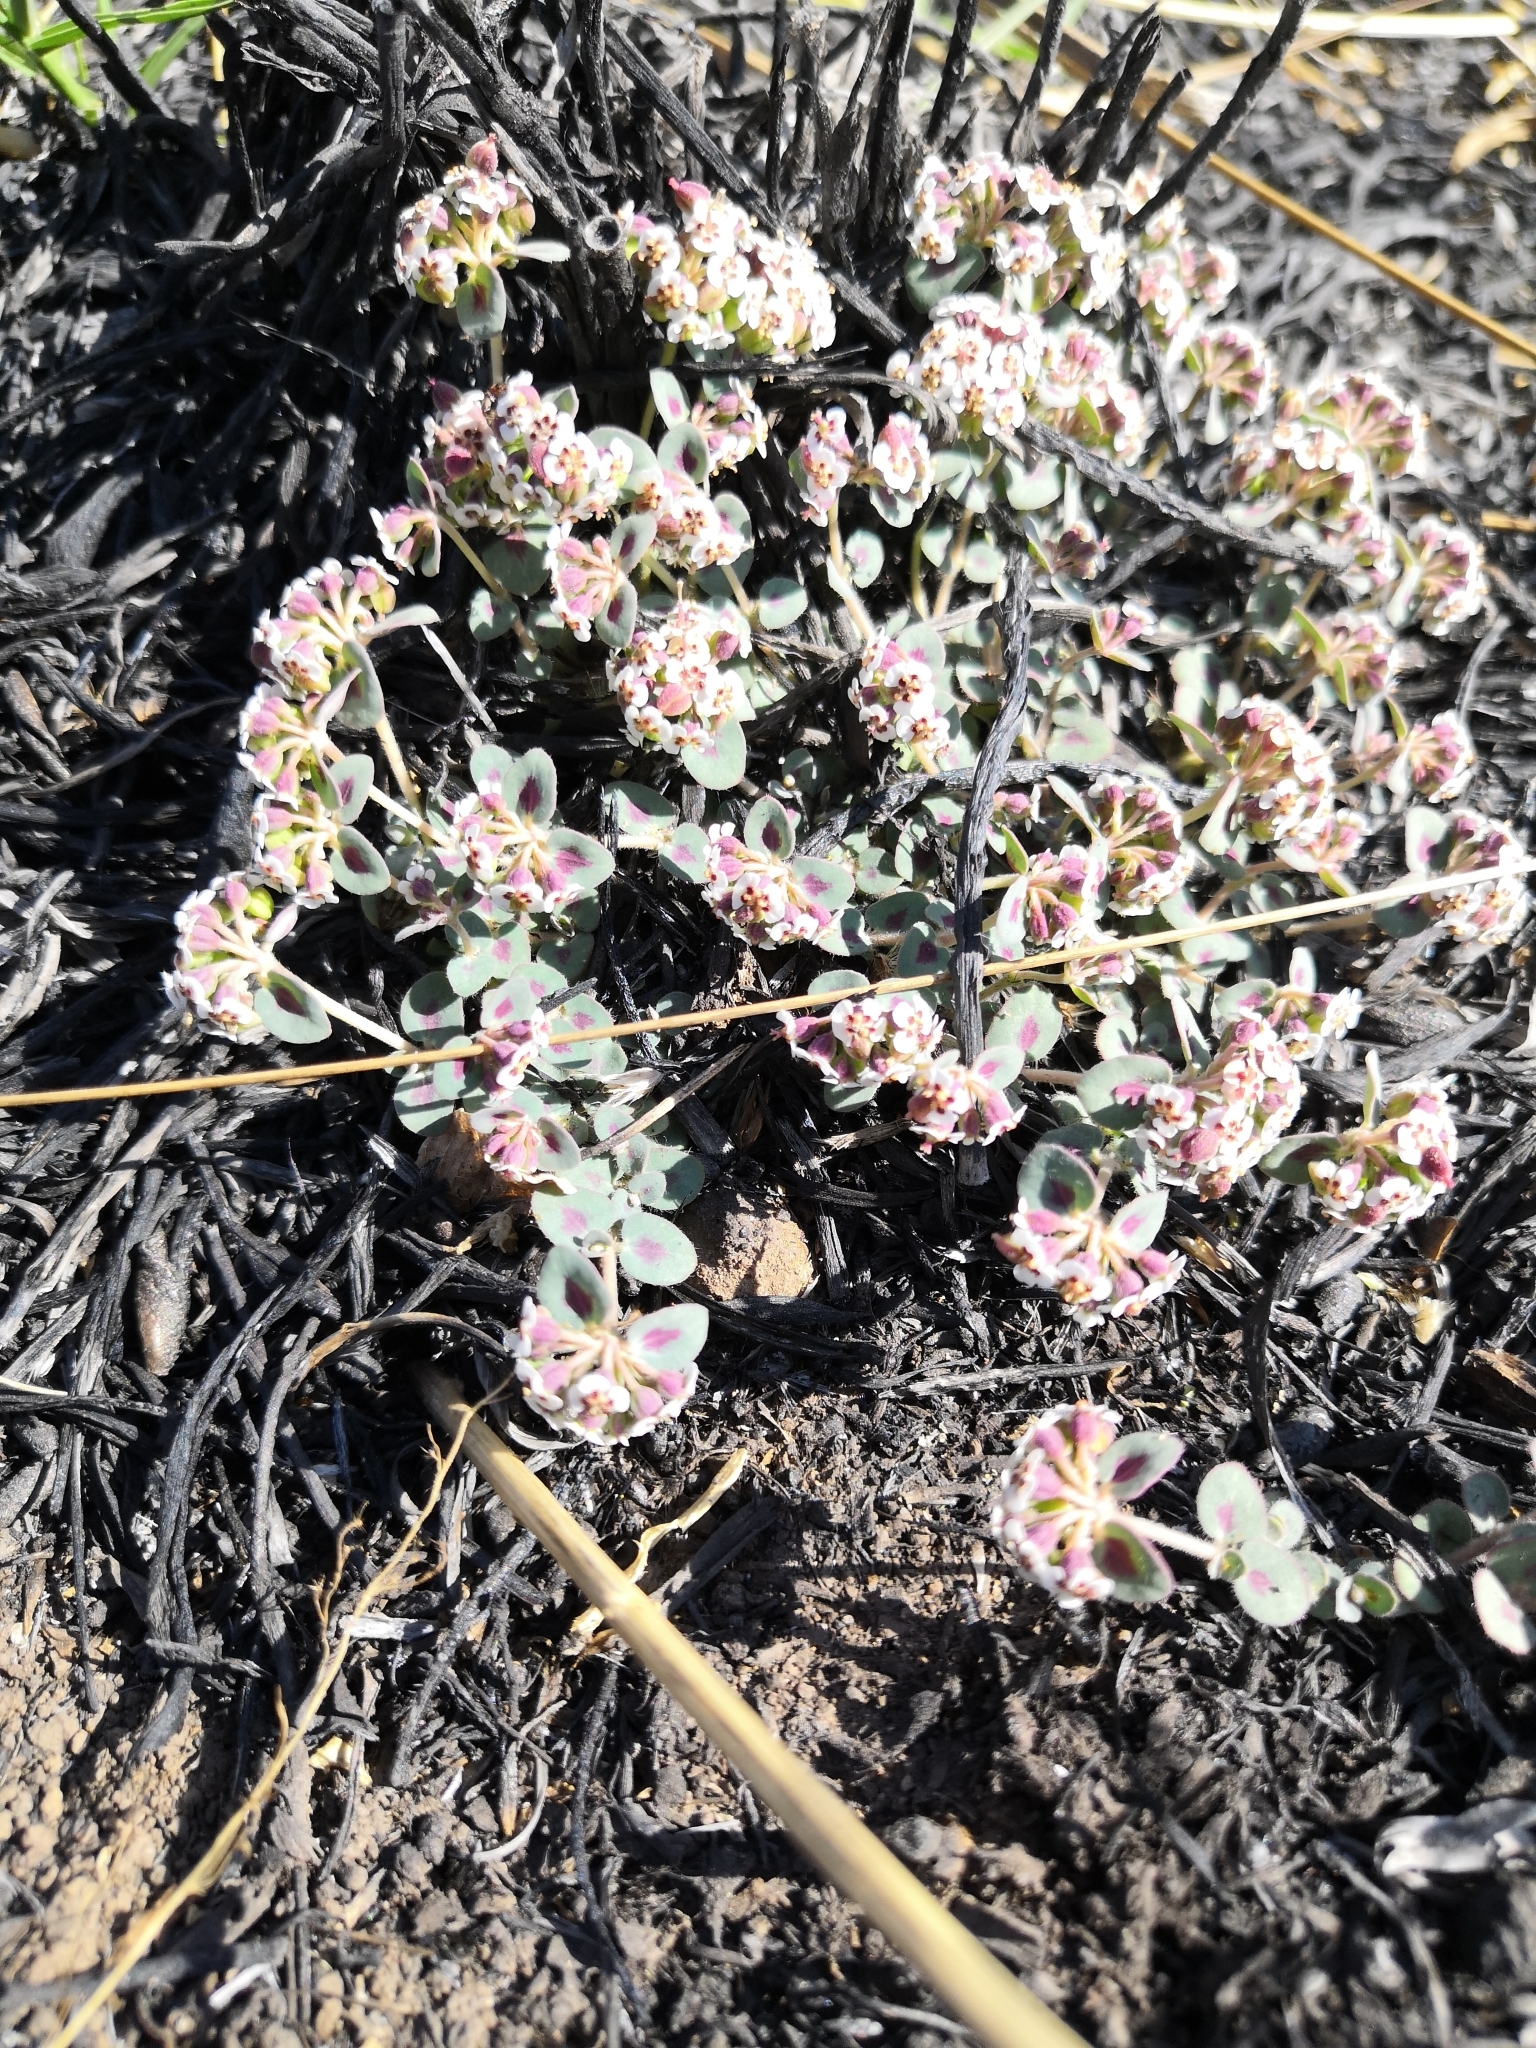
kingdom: Plantae
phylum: Tracheophyta
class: Magnoliopsida
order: Malpighiales
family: Euphorbiaceae
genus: Euphorbia
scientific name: Euphorbia umbellulata
